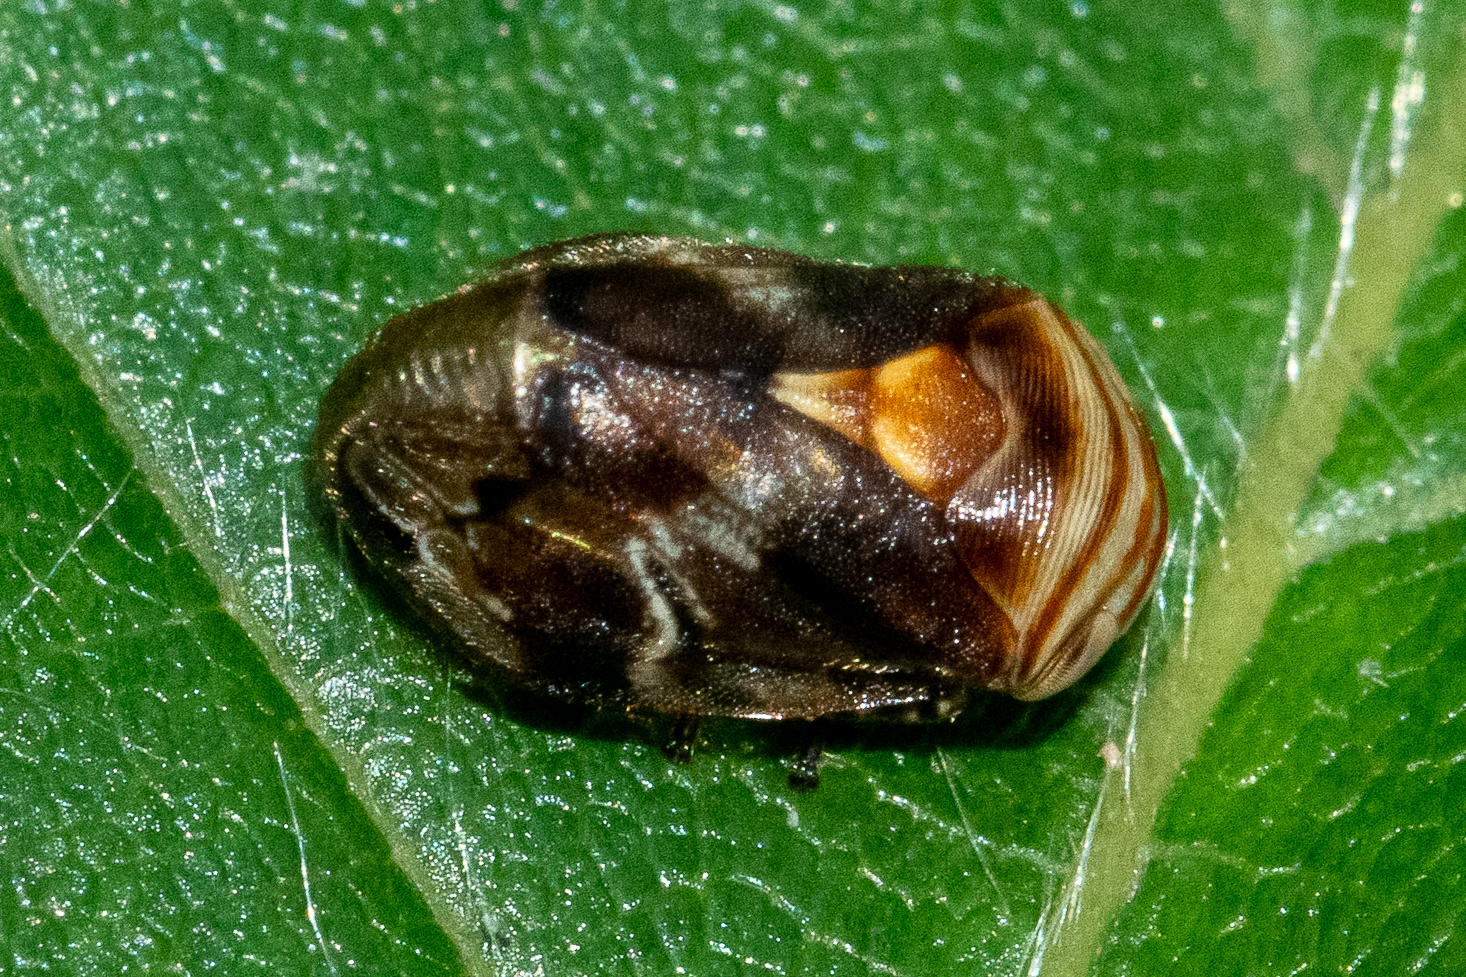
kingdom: Animalia
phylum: Arthropoda
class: Insecta
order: Hemiptera
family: Clastopteridae
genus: Clastoptera
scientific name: Clastoptera obtusa
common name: Alder spittlebug
